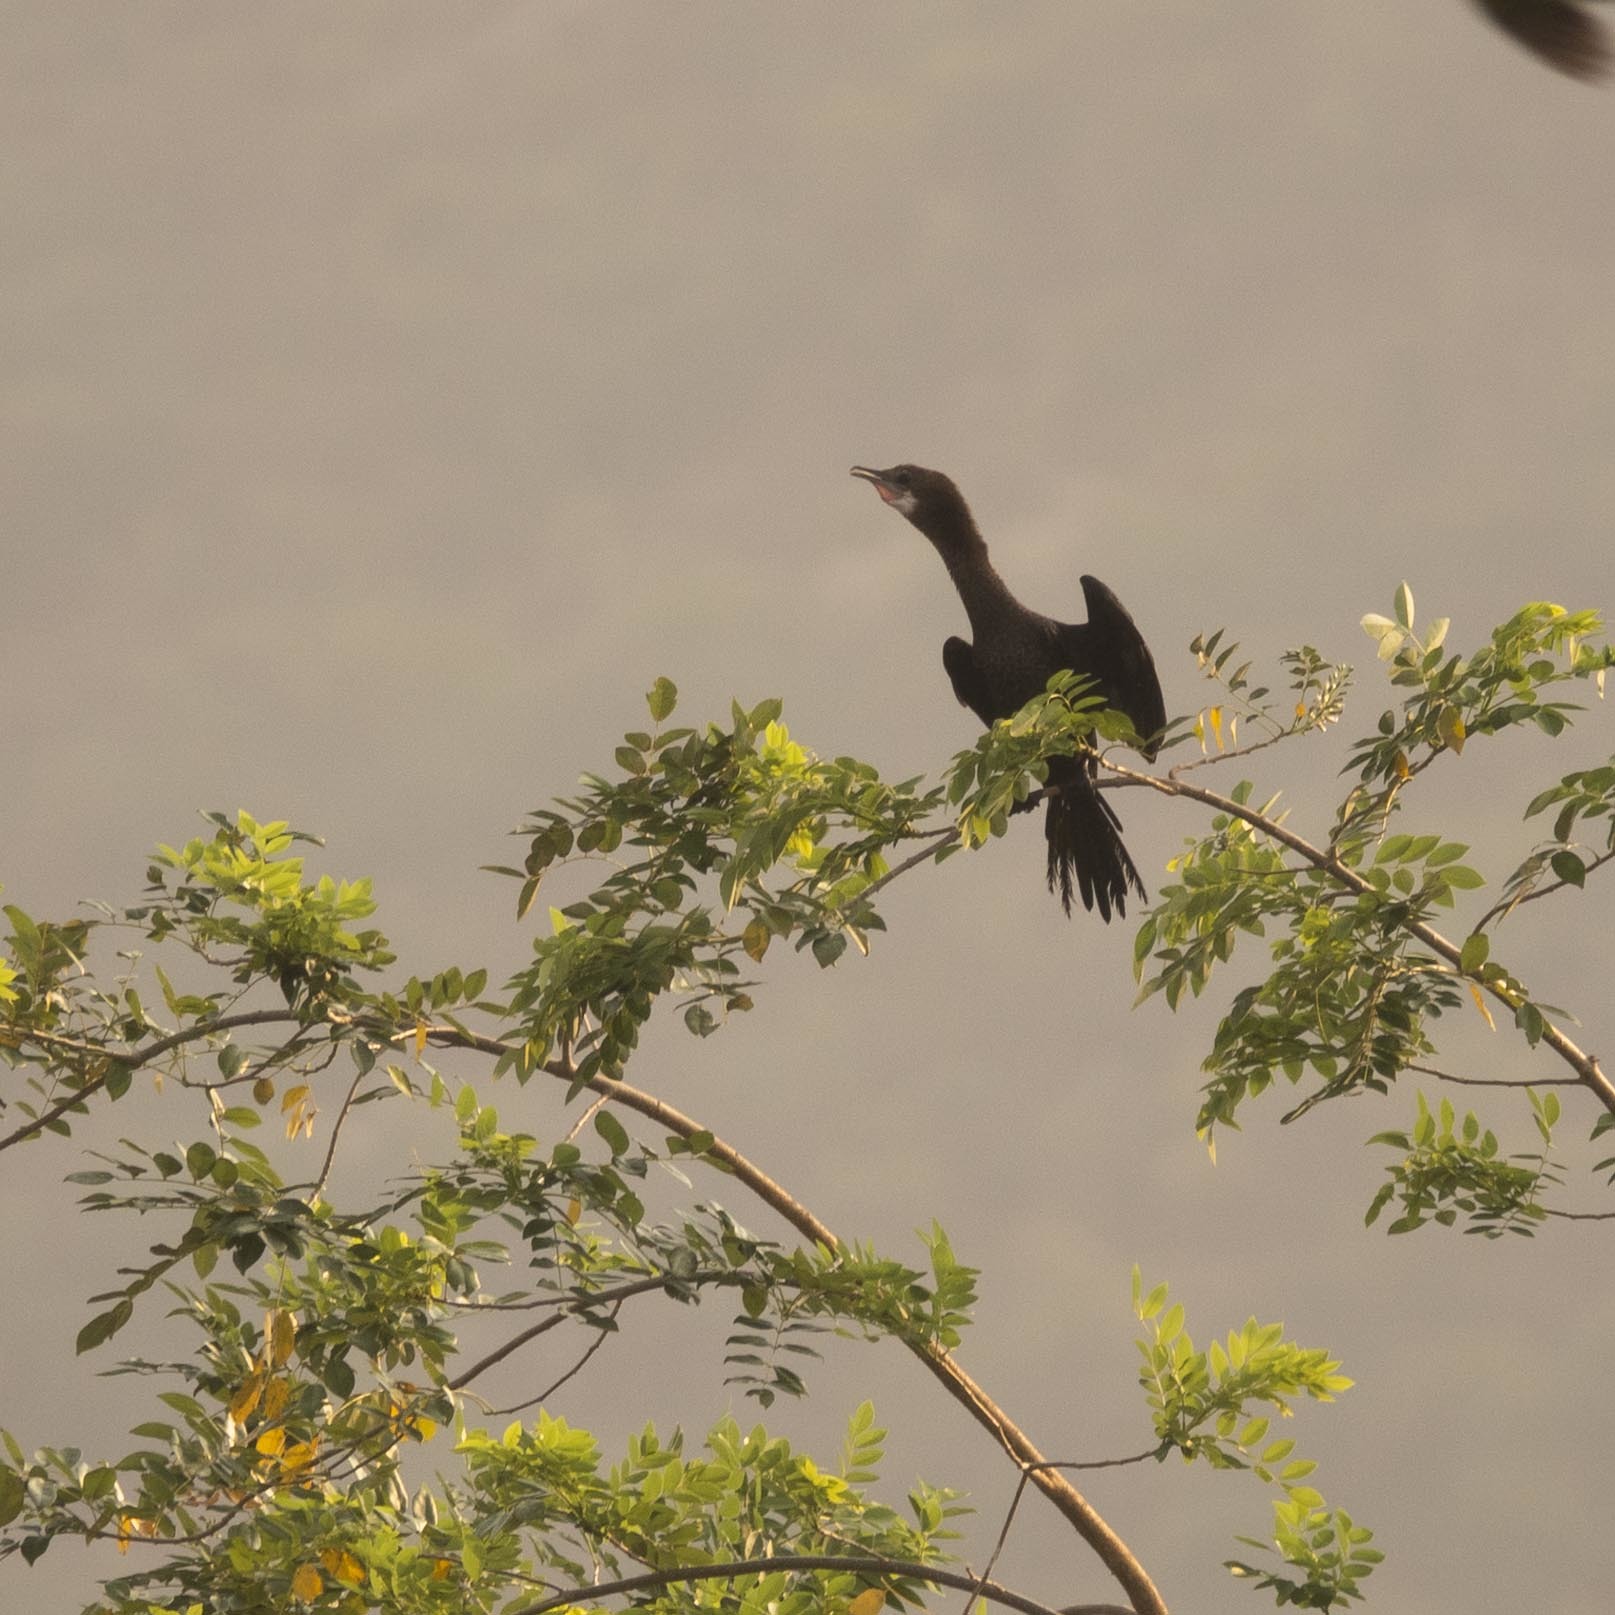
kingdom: Animalia
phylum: Chordata
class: Aves
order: Suliformes
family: Phalacrocoracidae
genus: Microcarbo
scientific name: Microcarbo niger
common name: Little cormorant
